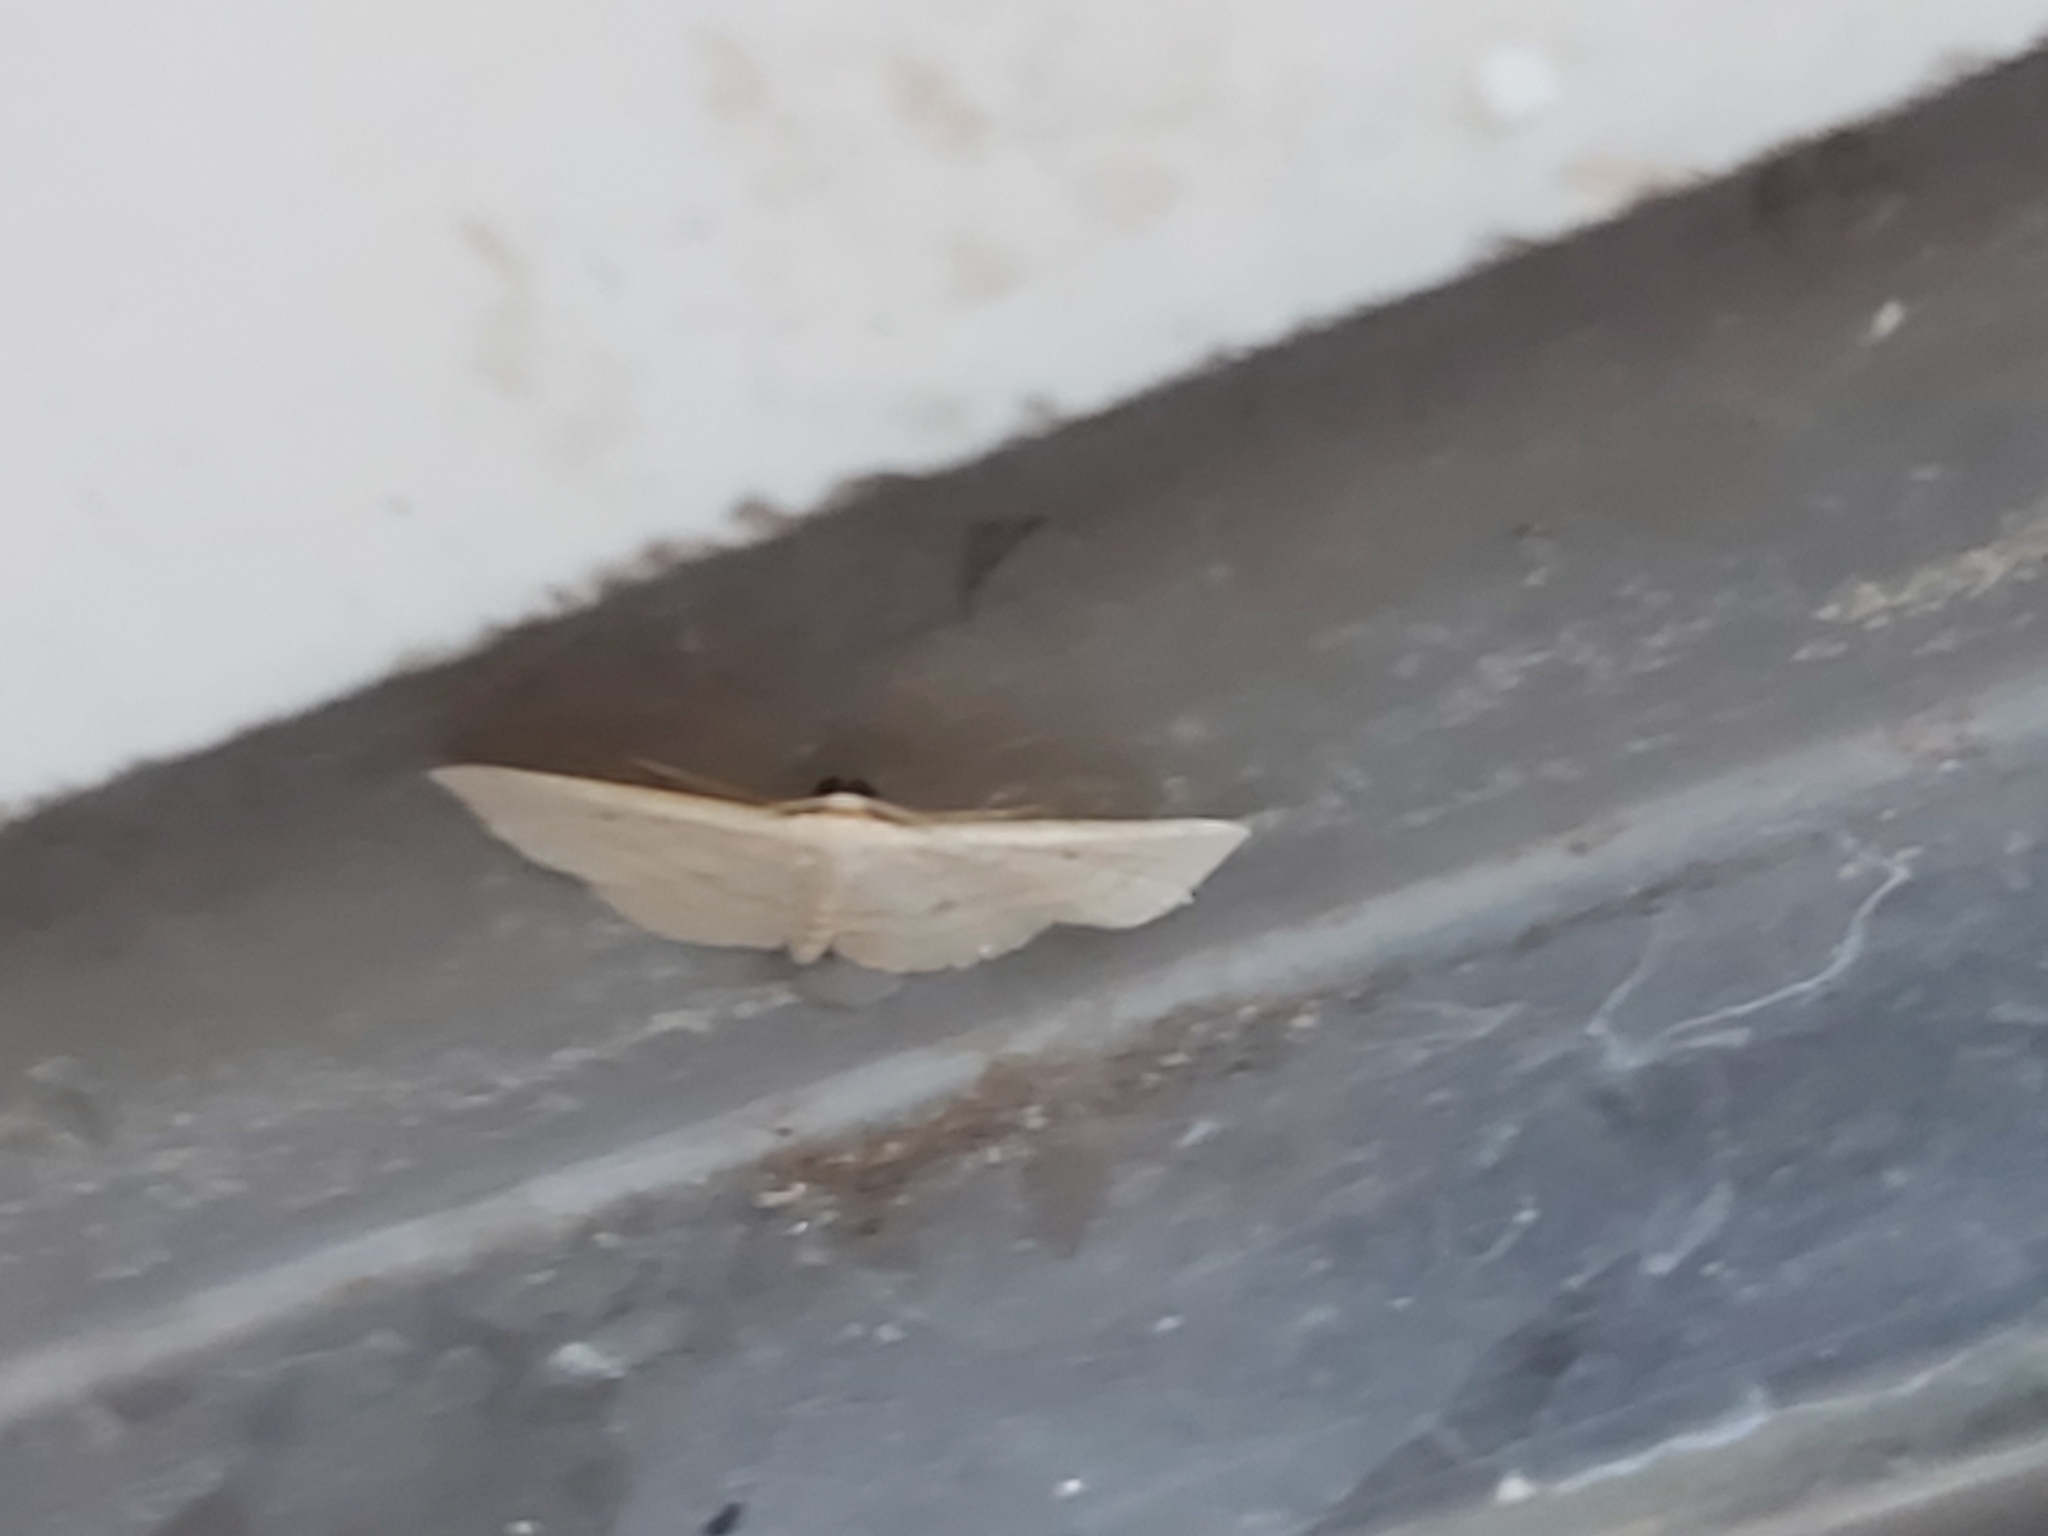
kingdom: Animalia
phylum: Arthropoda
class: Insecta
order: Lepidoptera
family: Geometridae
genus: Scopula
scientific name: Scopula optivata
